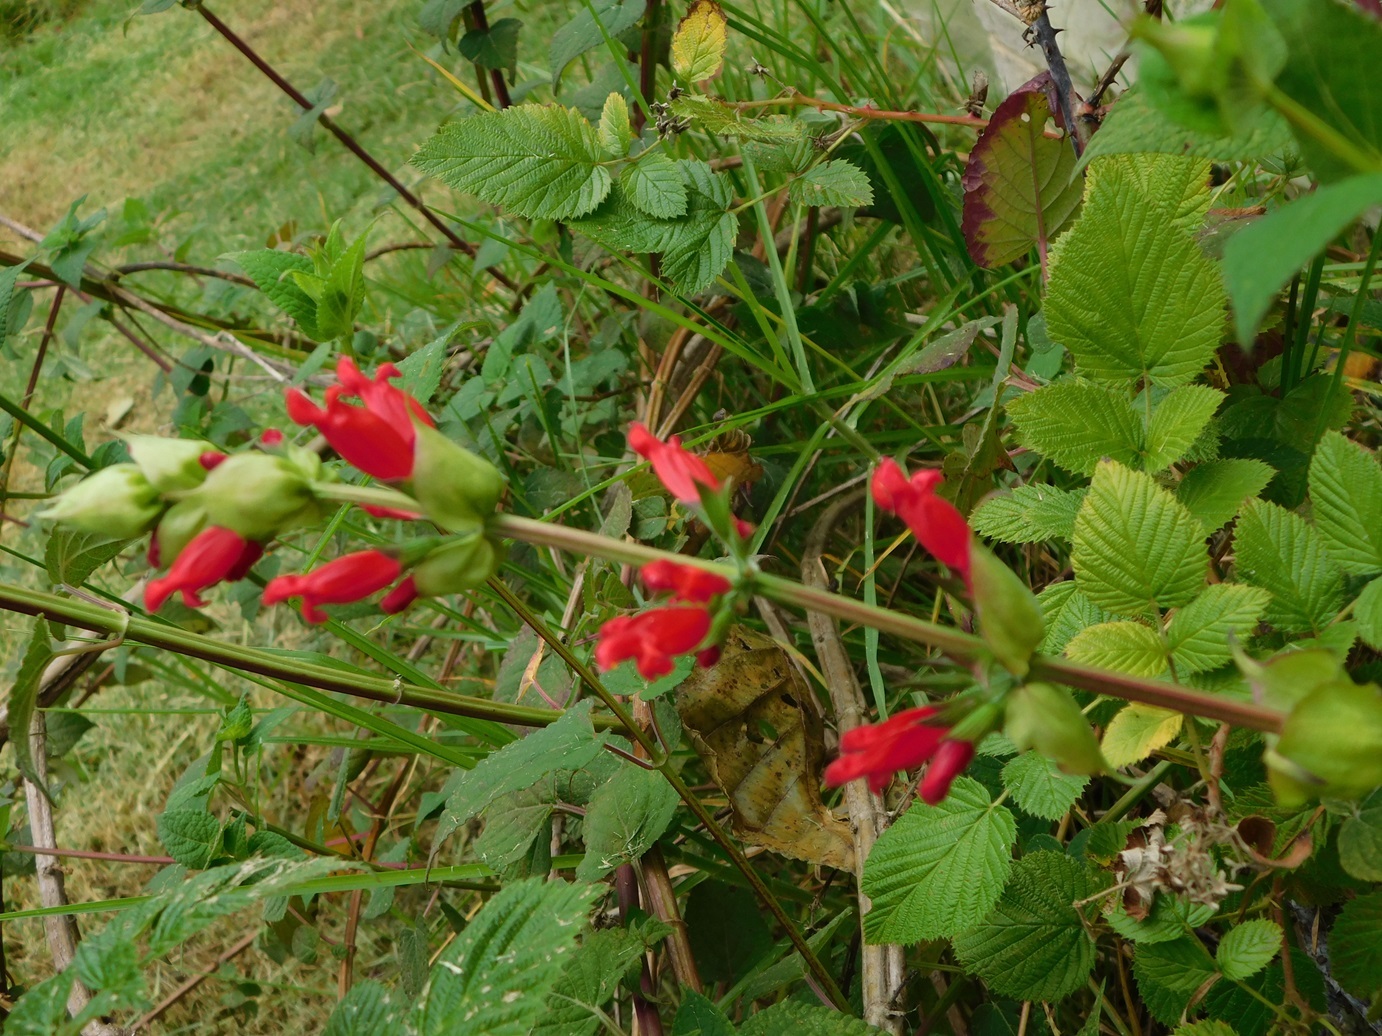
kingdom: Plantae
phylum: Tracheophyta
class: Magnoliopsida
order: Lamiales
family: Lamiaceae
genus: Salvia
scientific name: Salvia holwayi
